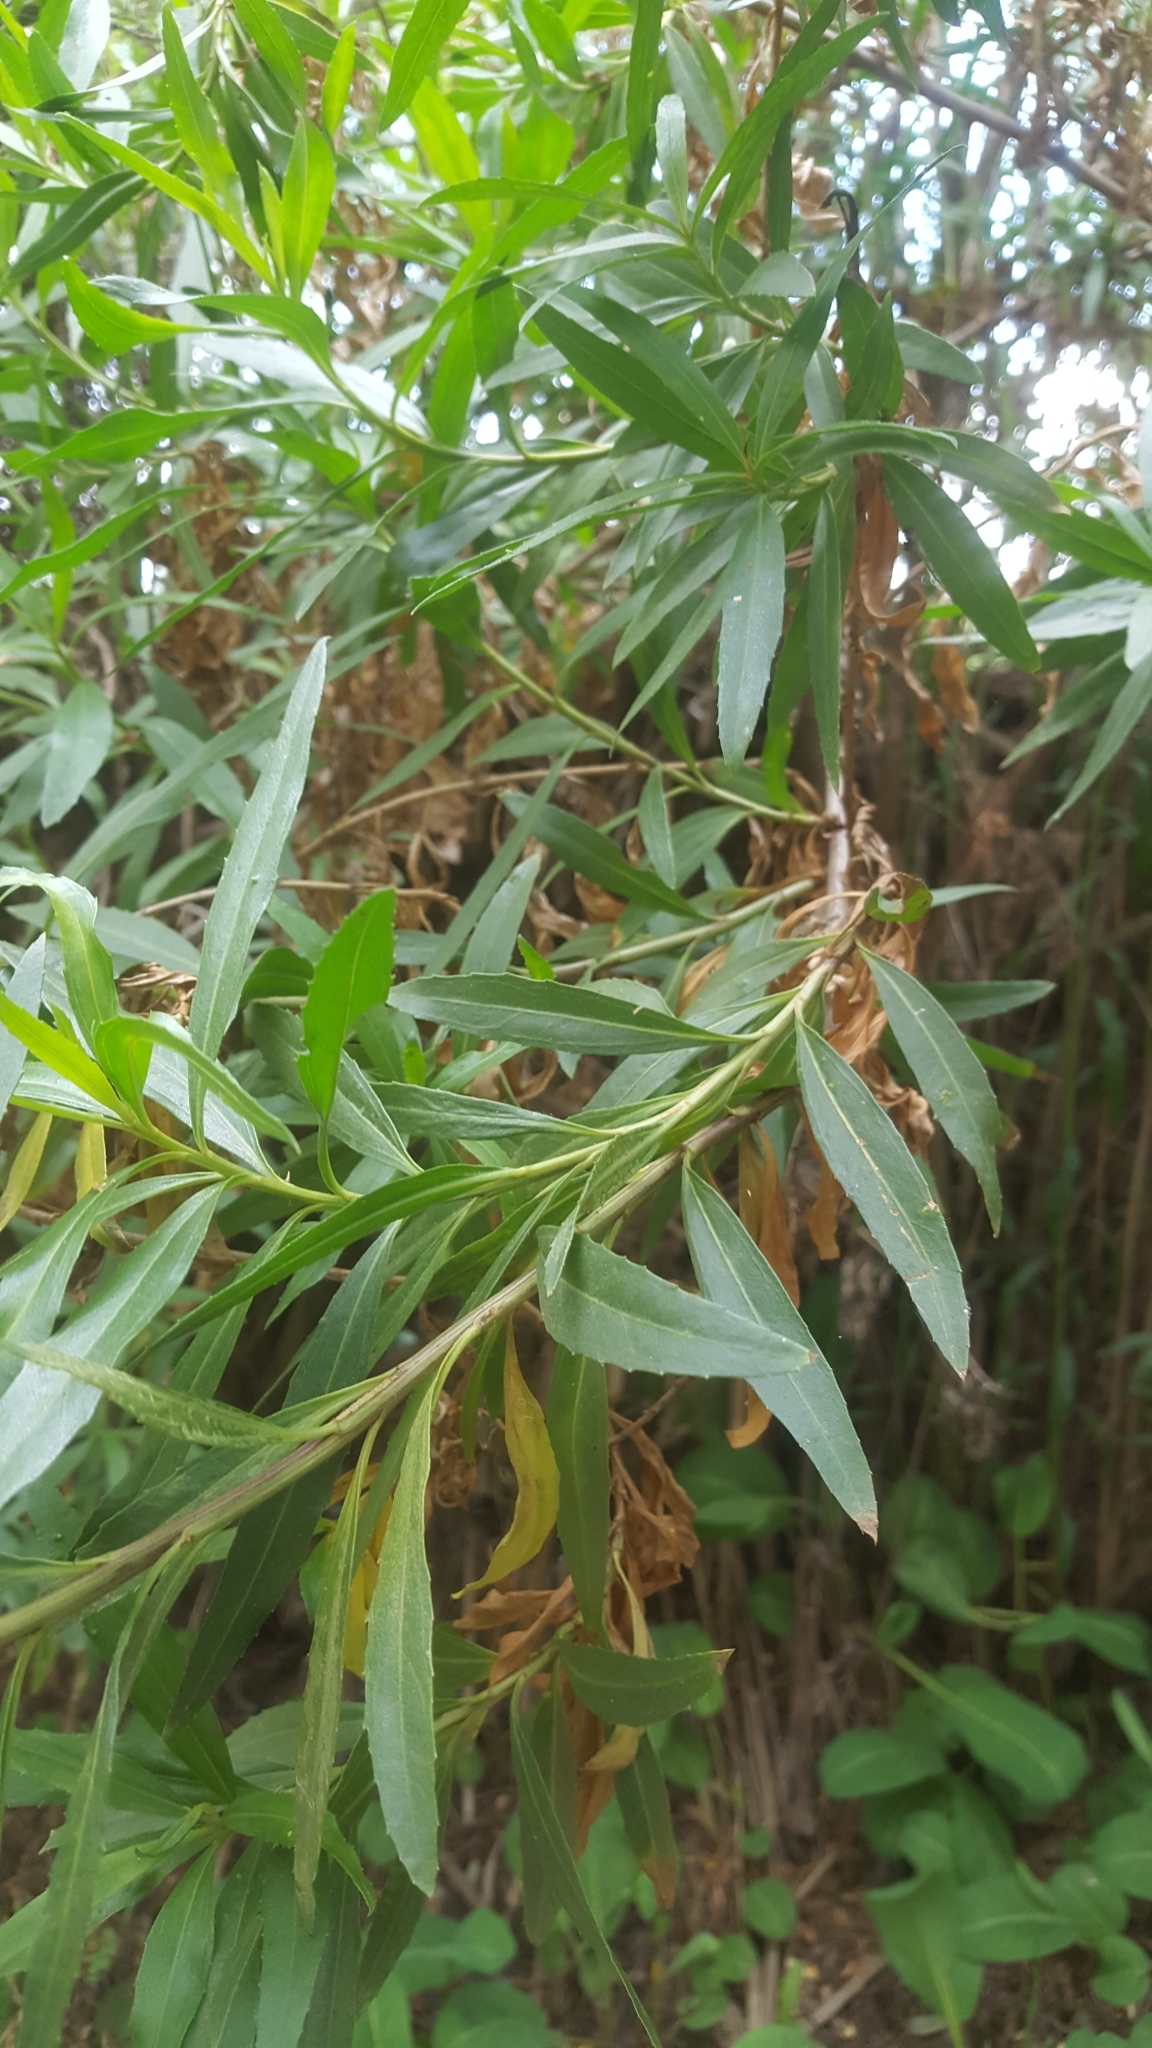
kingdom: Plantae
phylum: Tracheophyta
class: Magnoliopsida
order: Asterales
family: Asteraceae
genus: Baccharis
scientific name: Baccharis salicifolia
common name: Sticky baccharis
